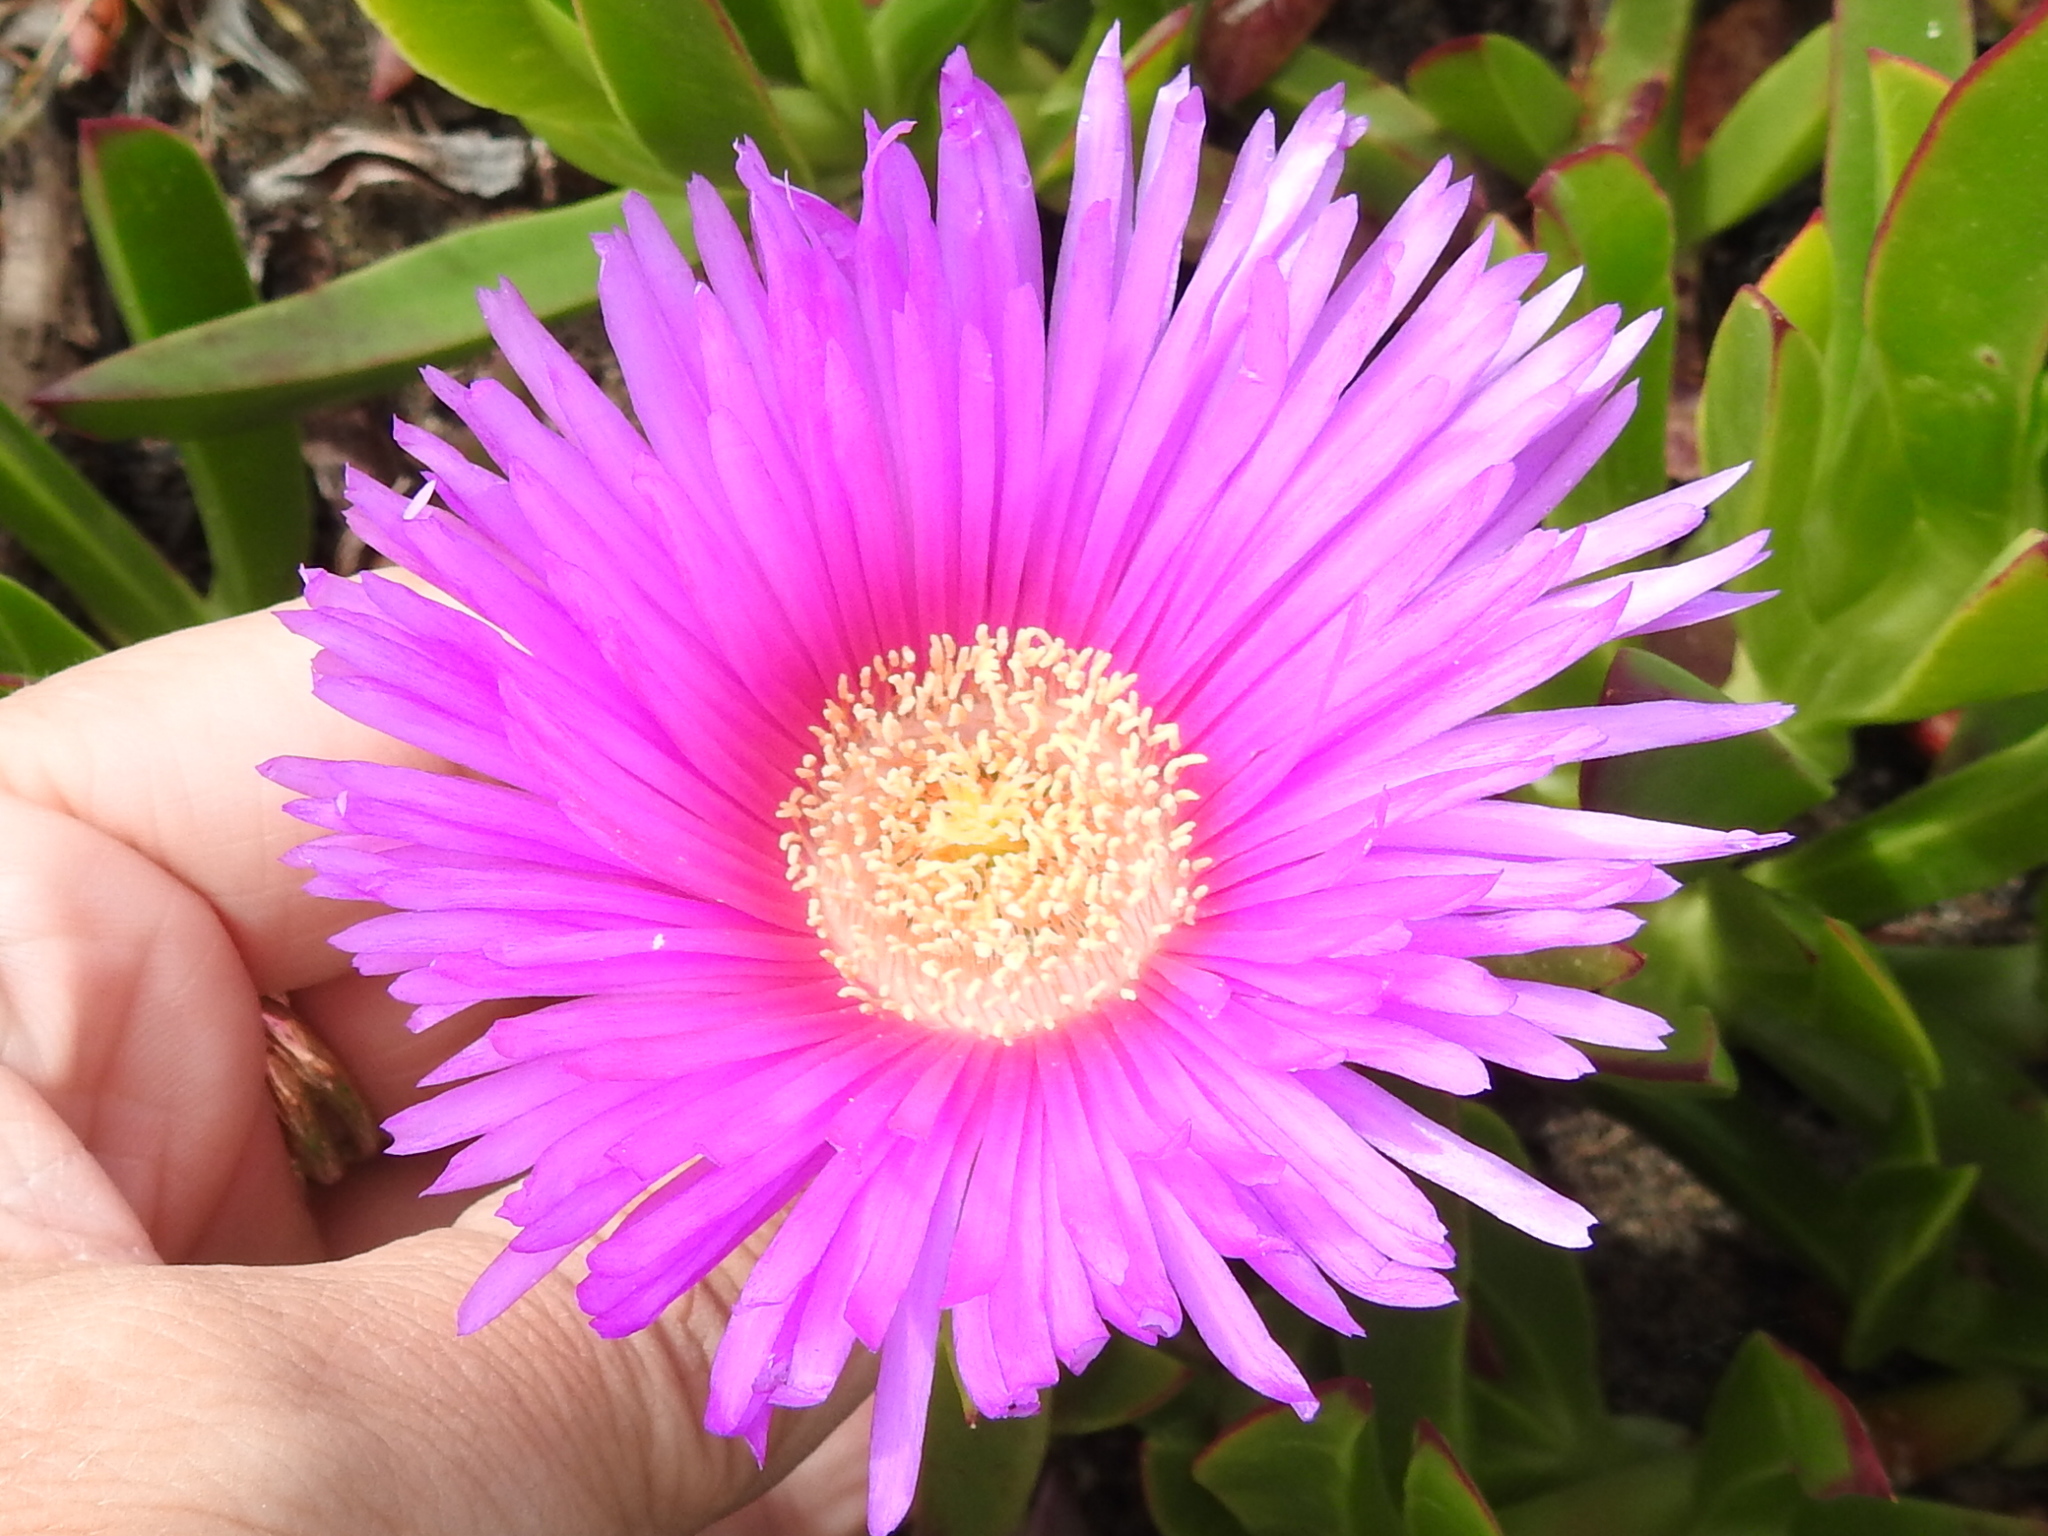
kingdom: Plantae
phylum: Tracheophyta
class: Magnoliopsida
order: Caryophyllales
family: Aizoaceae
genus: Carpobrotus
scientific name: Carpobrotus chilensis
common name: Sea fig
